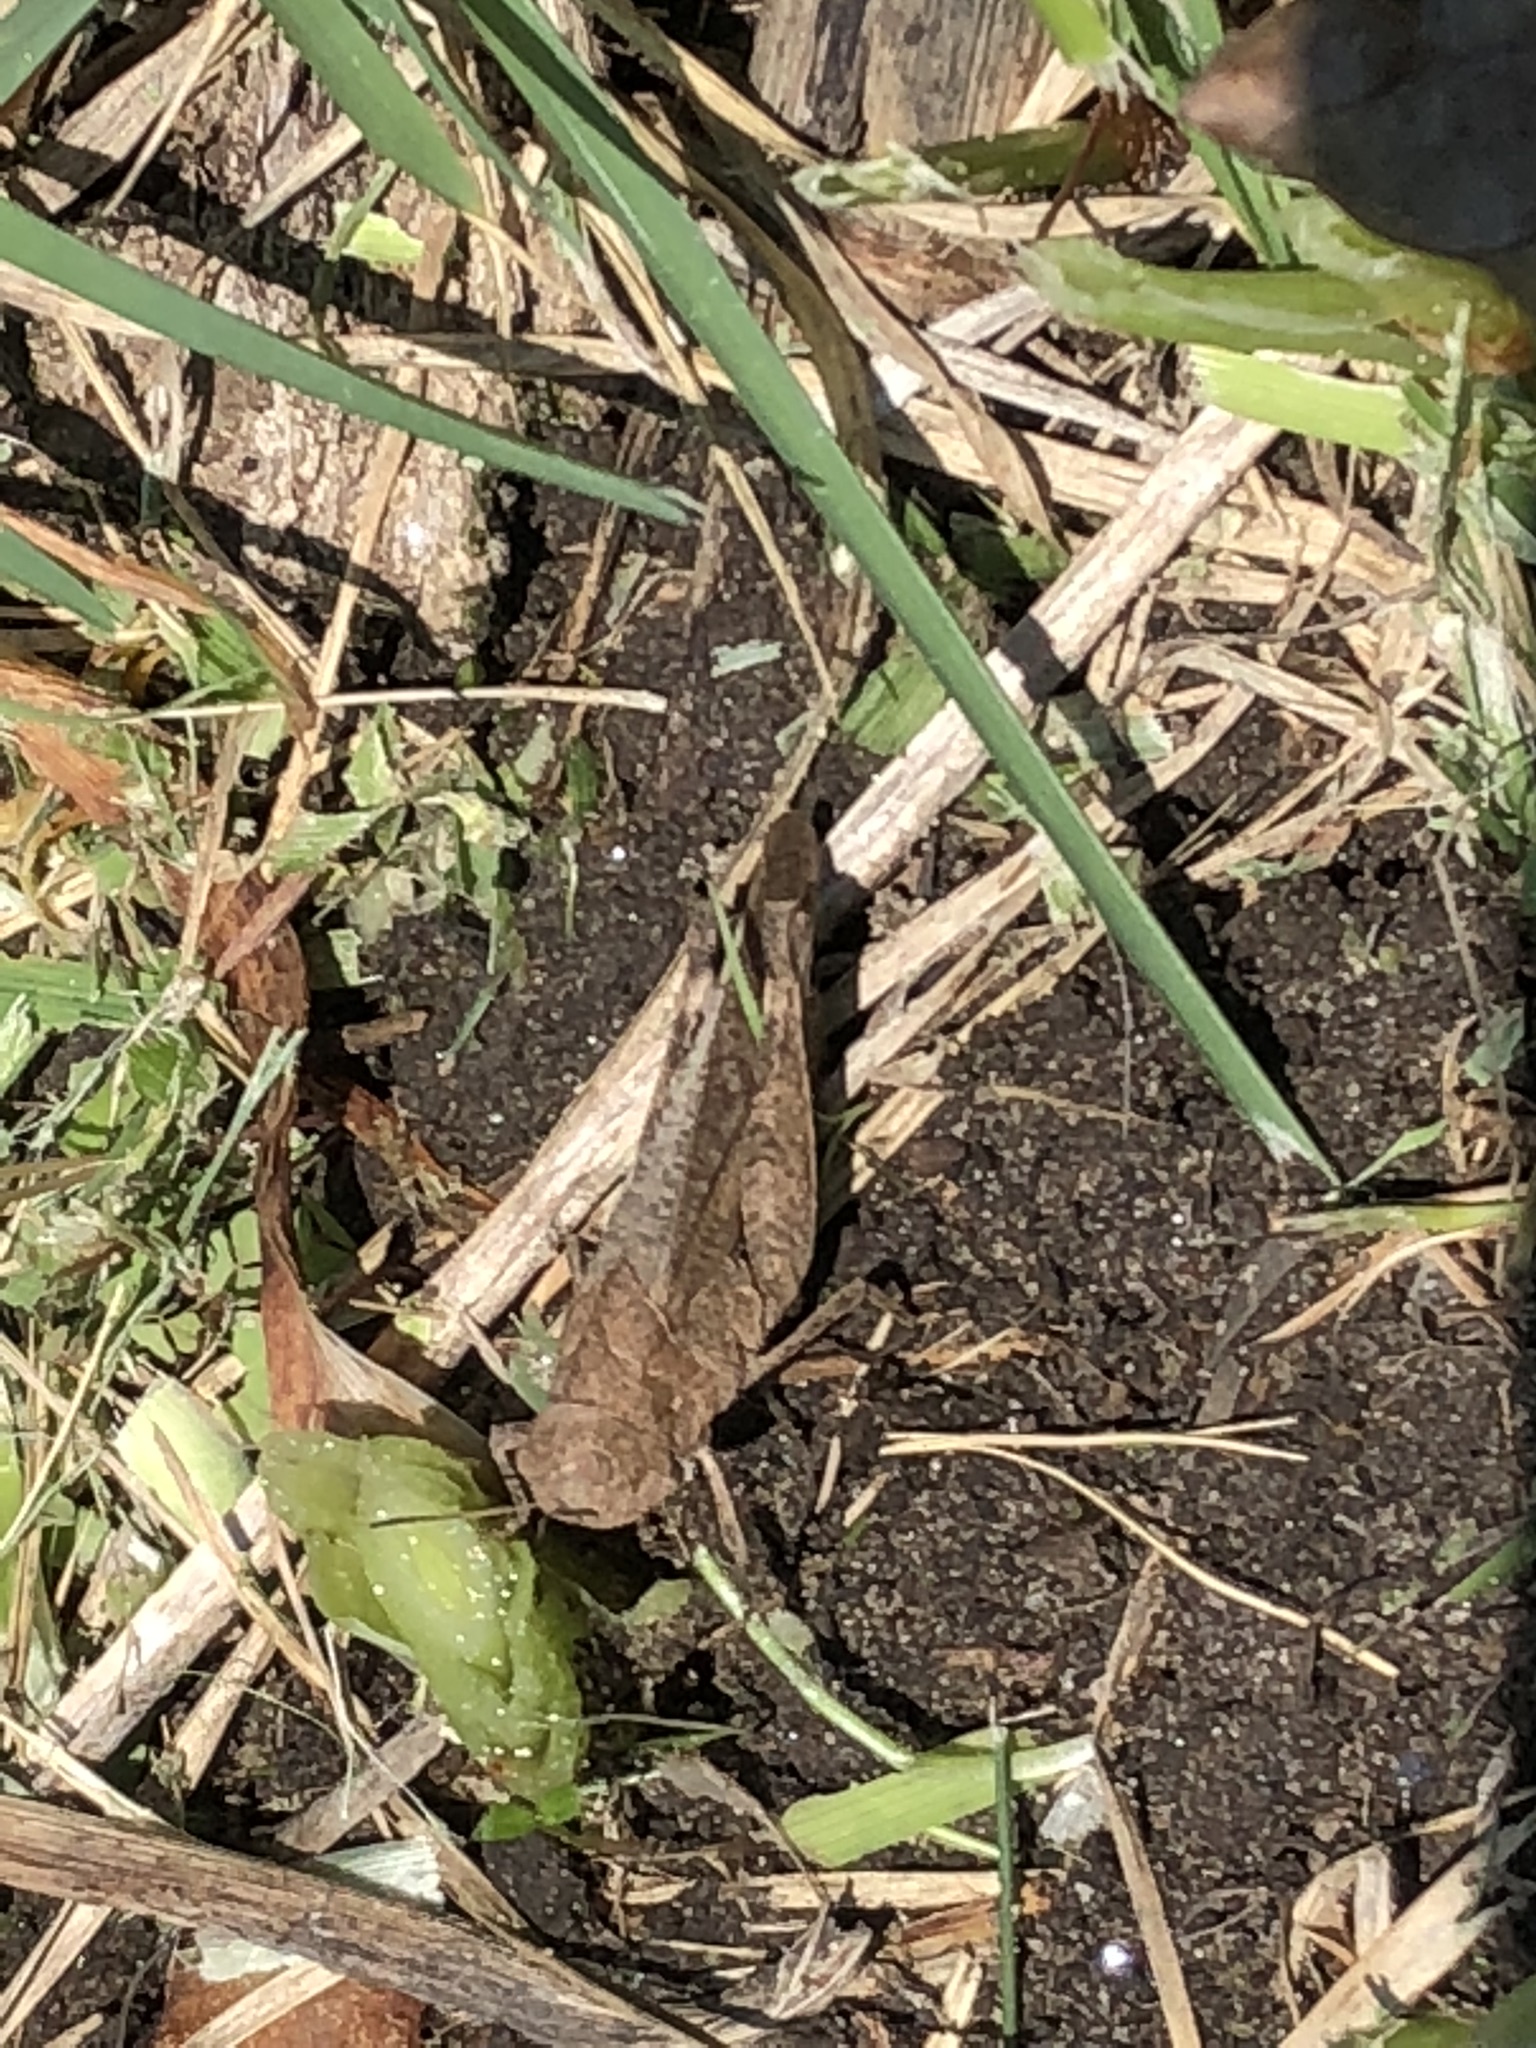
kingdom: Animalia
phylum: Arthropoda
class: Insecta
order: Orthoptera
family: Acrididae
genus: Arphia
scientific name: Arphia sulphurea
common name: Spring yellow-winged locust
